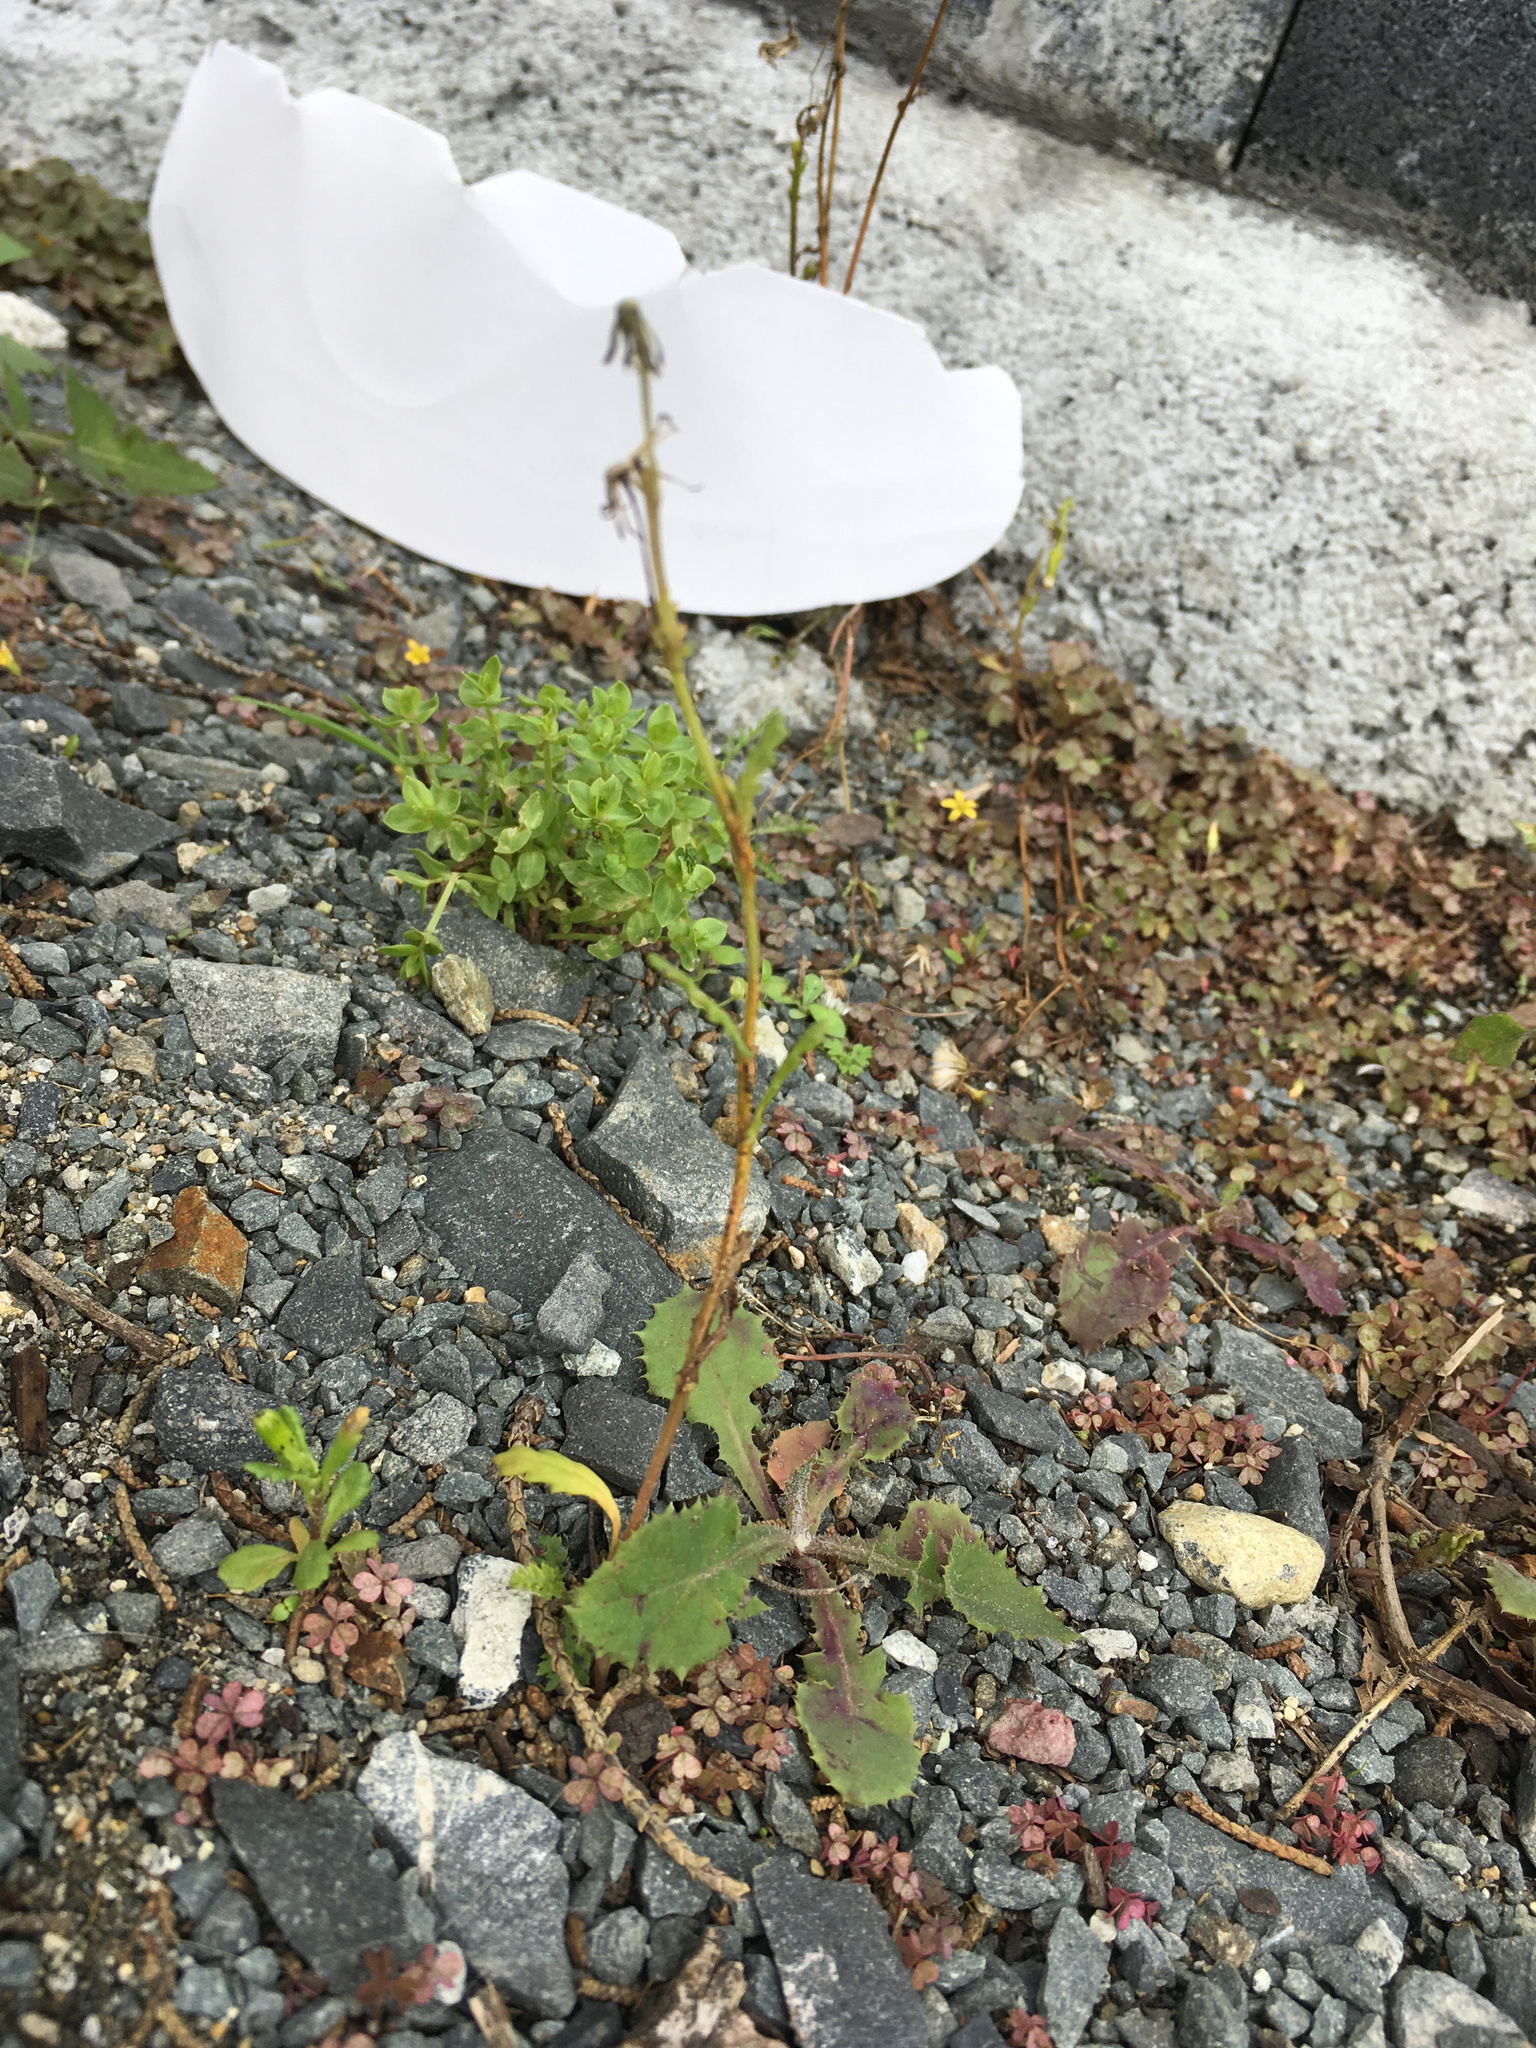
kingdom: Plantae
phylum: Tracheophyta
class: Magnoliopsida
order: Asterales
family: Asteraceae
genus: Senecio
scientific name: Senecio vulgaris
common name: Old-man-in-the-spring
